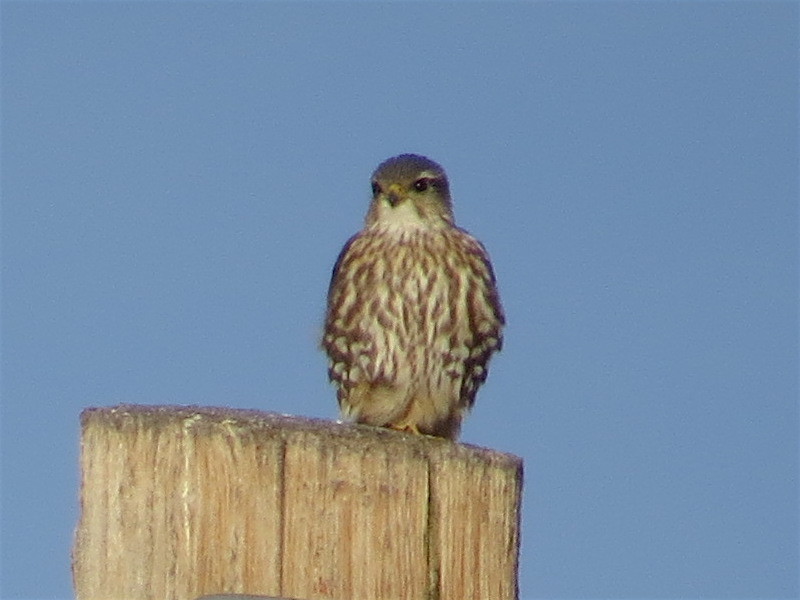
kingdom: Animalia
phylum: Chordata
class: Aves
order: Falconiformes
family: Falconidae
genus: Falco
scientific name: Falco columbarius
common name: Merlin
